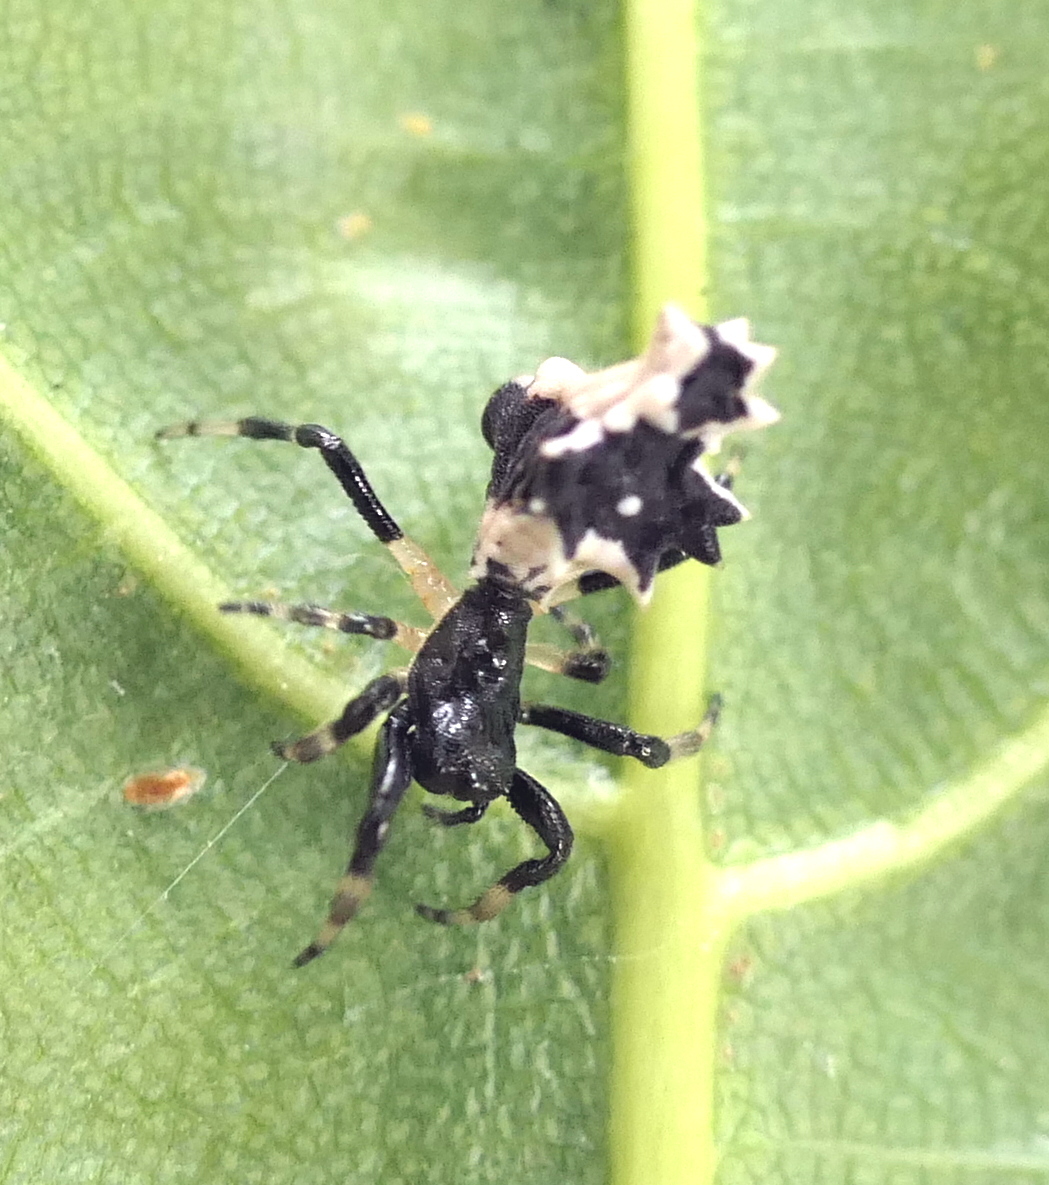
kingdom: Animalia
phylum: Arthropoda
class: Arachnida
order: Araneae
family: Araneidae
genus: Micrathena
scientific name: Micrathena horrida
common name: Orb weavers
